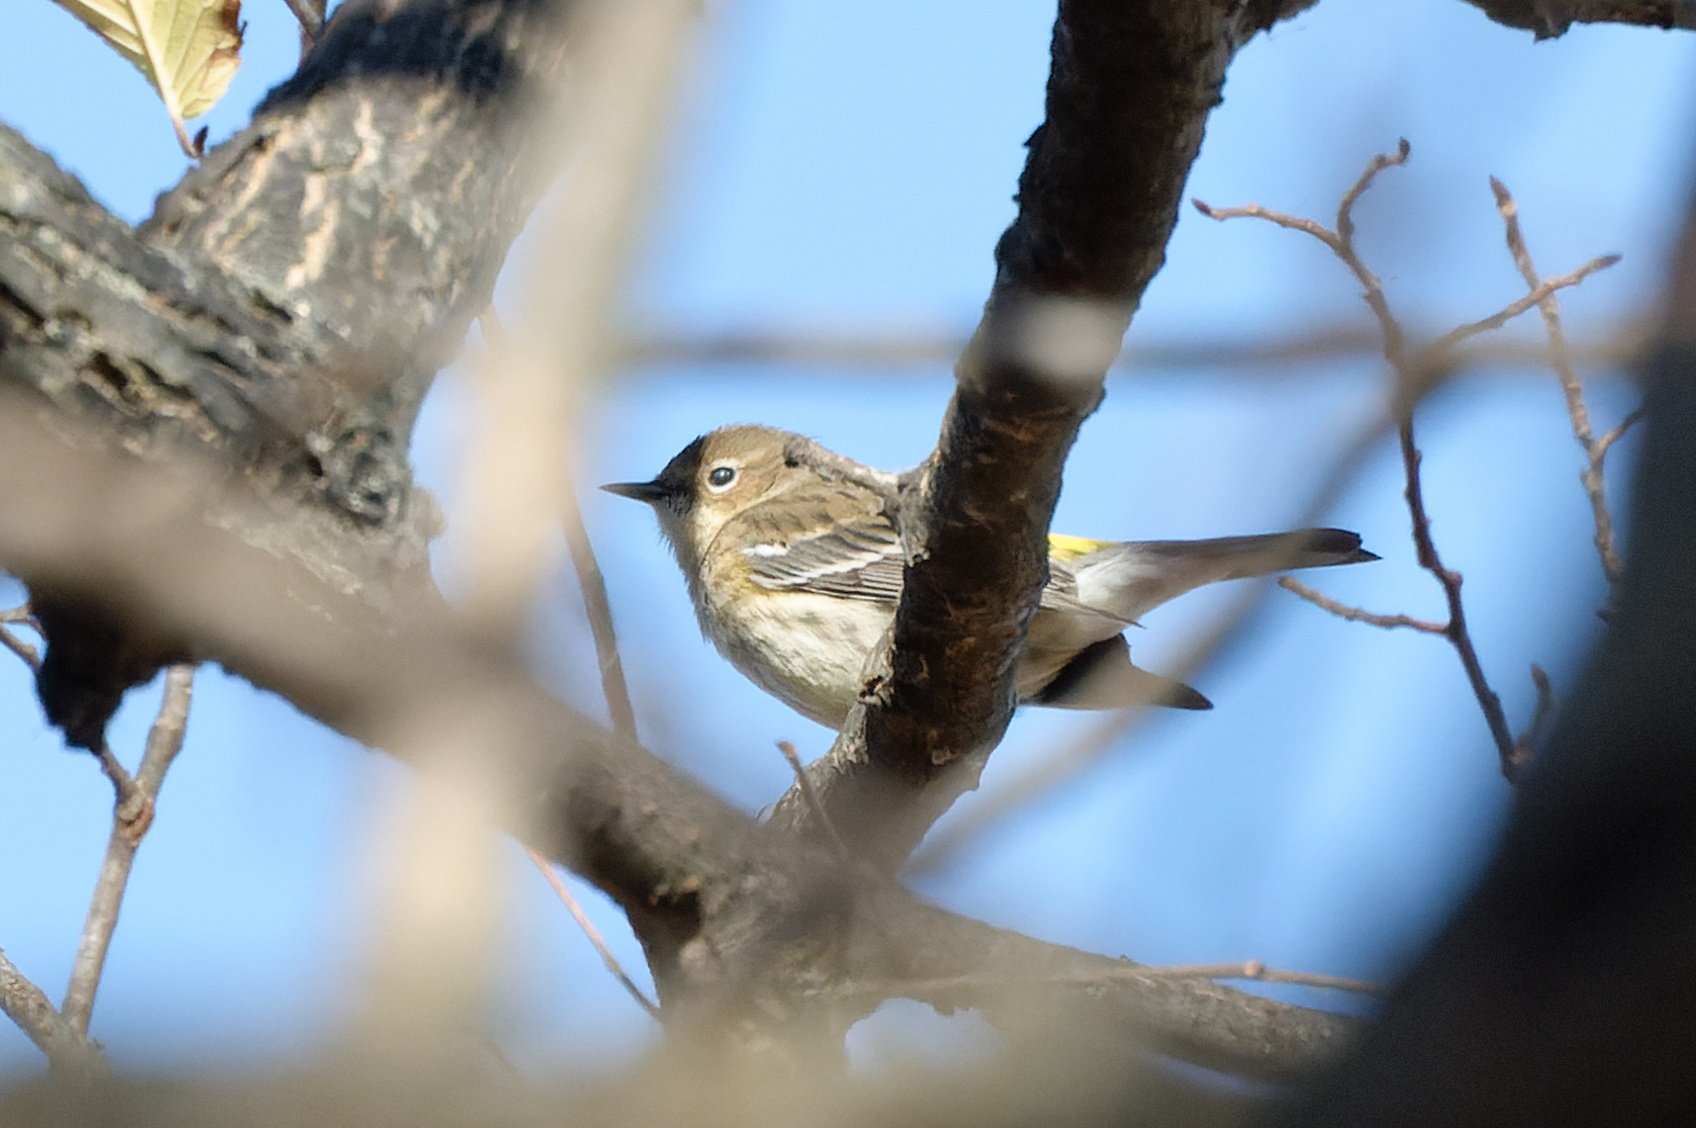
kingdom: Animalia
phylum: Chordata
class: Aves
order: Passeriformes
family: Parulidae
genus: Setophaga
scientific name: Setophaga coronata
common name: Myrtle warbler
